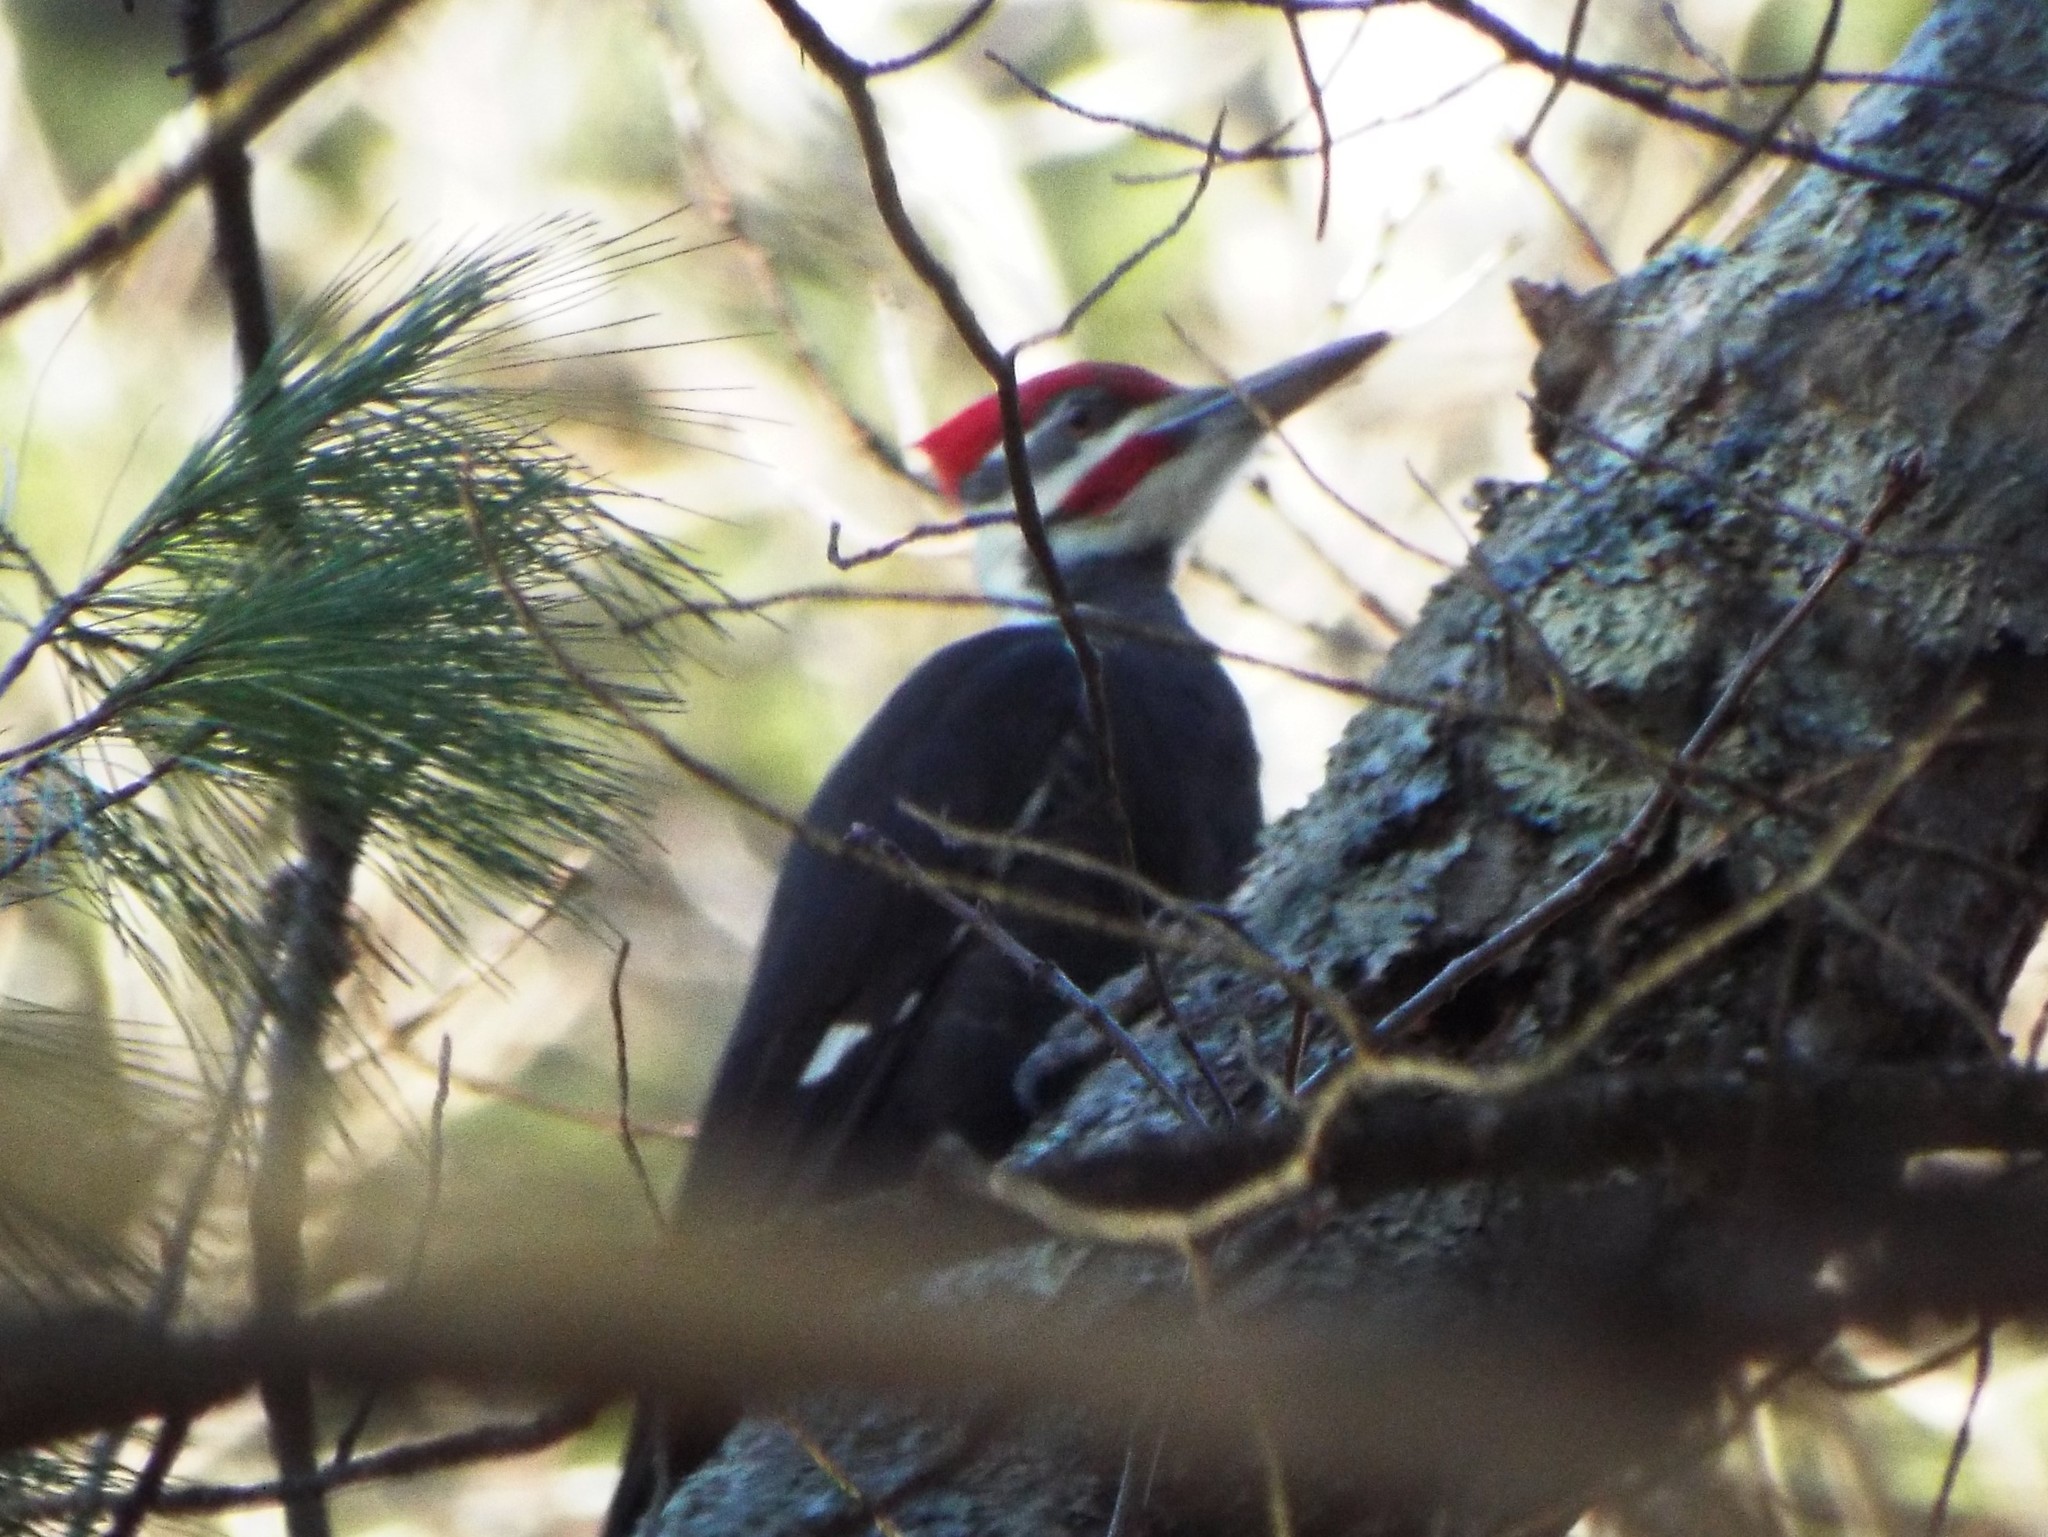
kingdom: Animalia
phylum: Chordata
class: Aves
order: Piciformes
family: Picidae
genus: Dryocopus
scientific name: Dryocopus pileatus
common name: Pileated woodpecker
